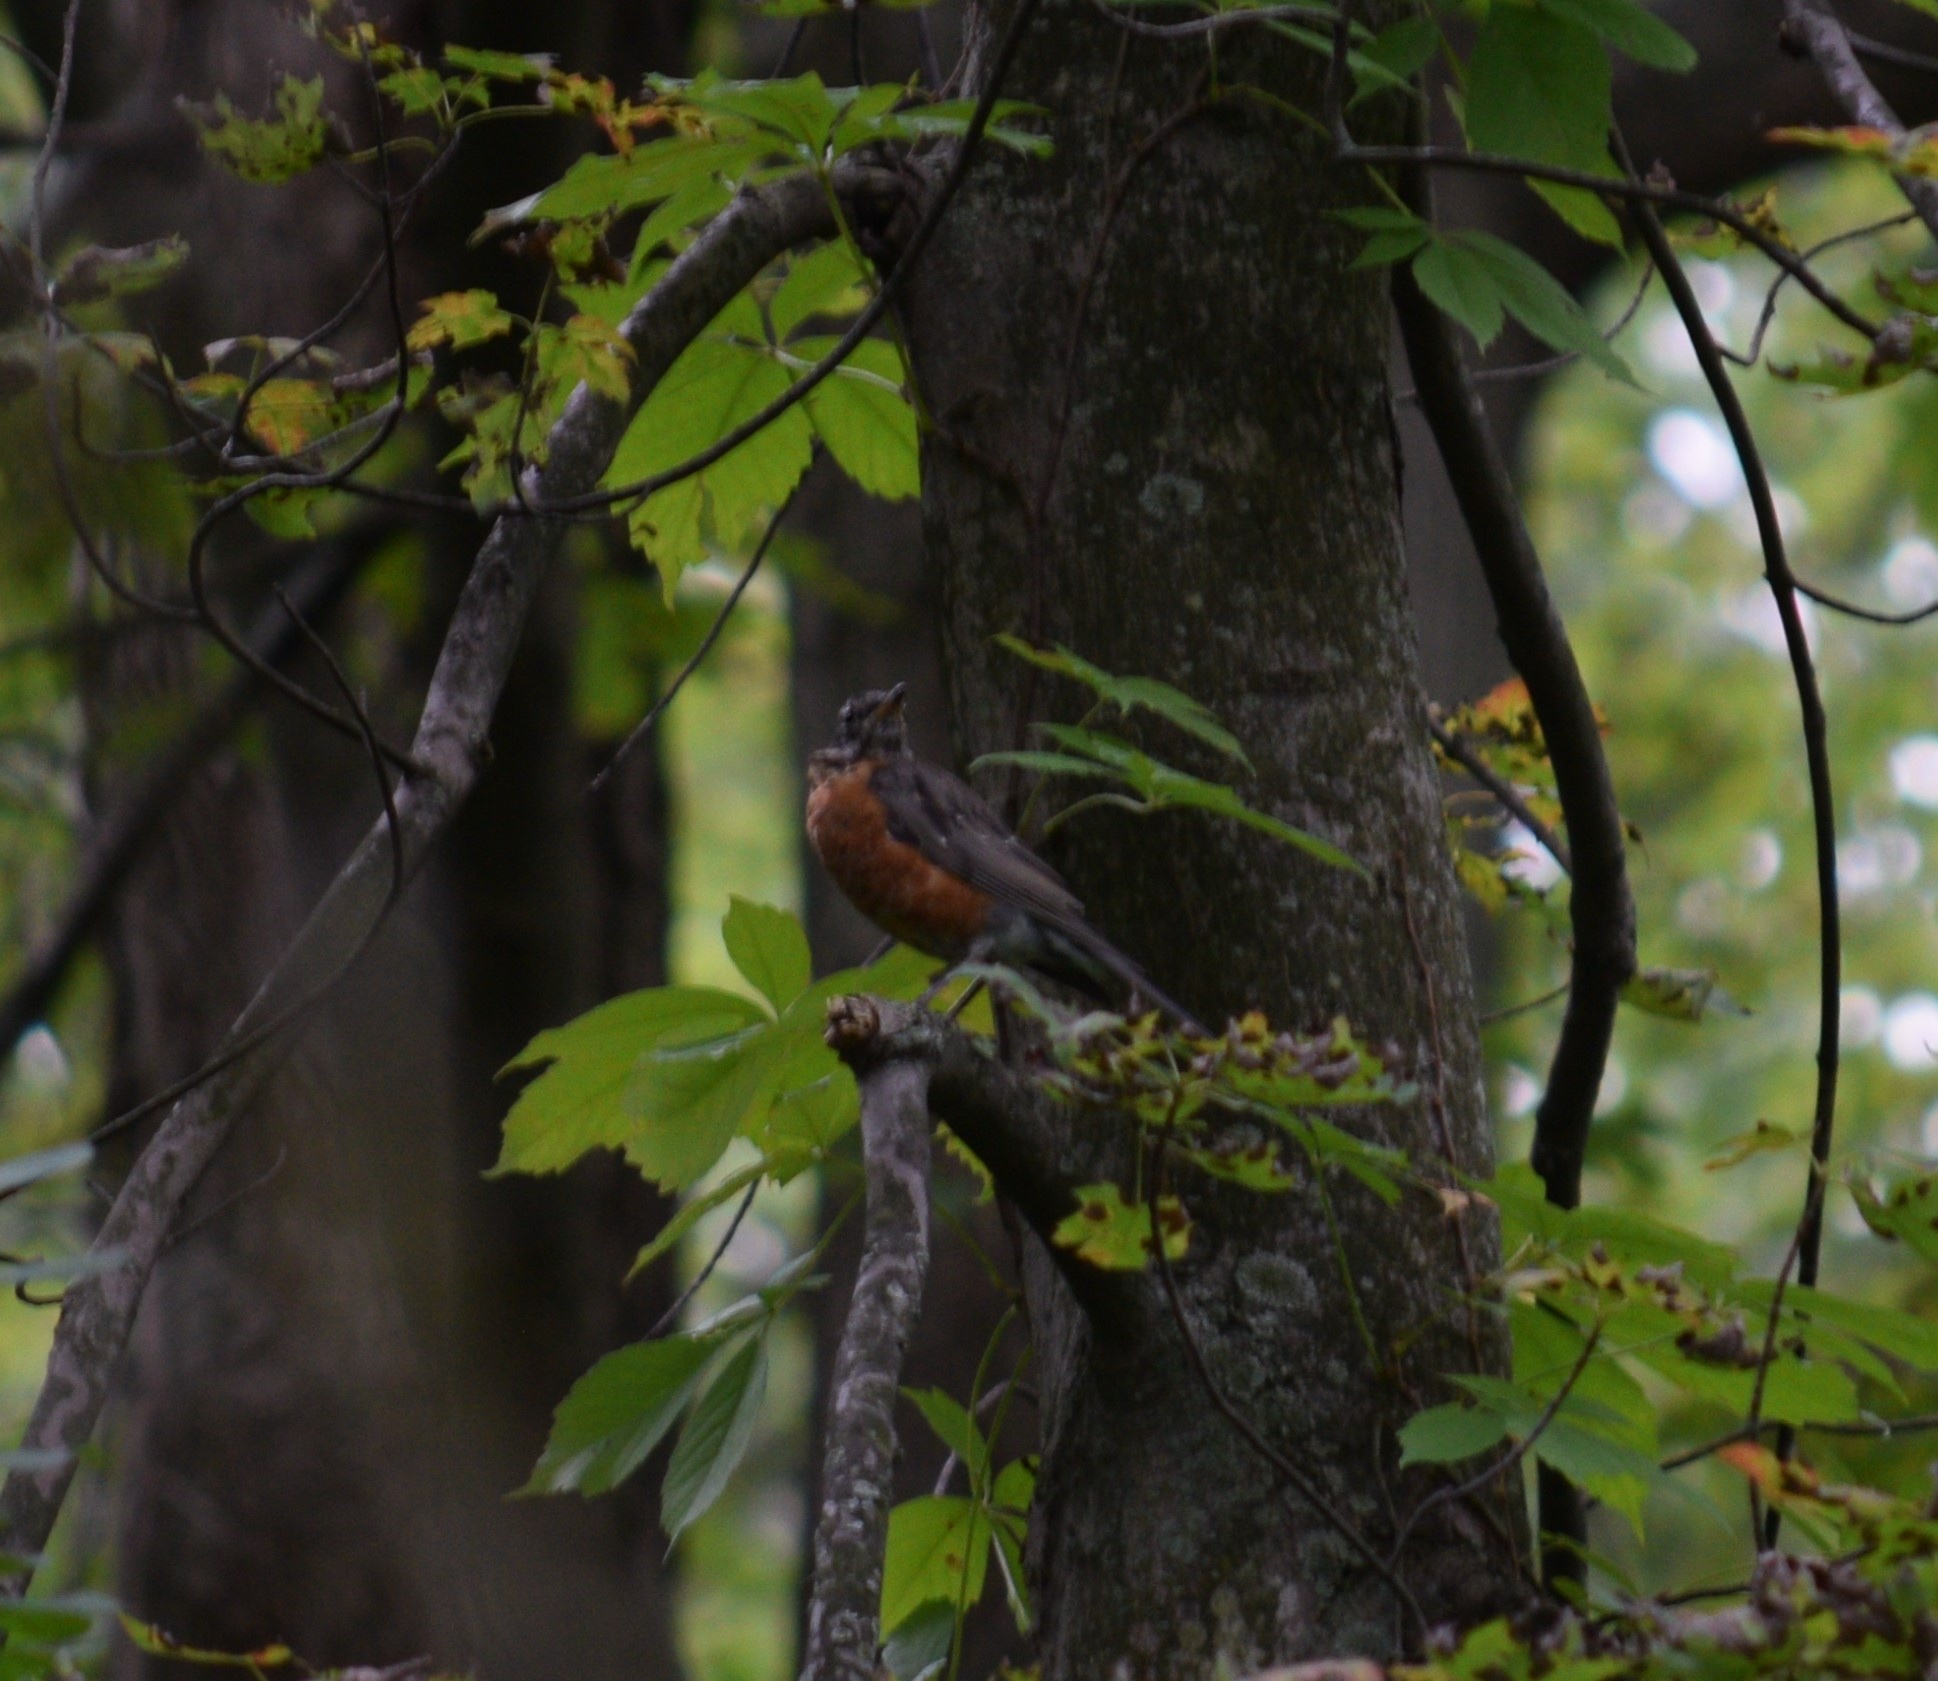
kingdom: Animalia
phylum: Chordata
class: Aves
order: Passeriformes
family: Turdidae
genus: Turdus
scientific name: Turdus migratorius
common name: American robin
